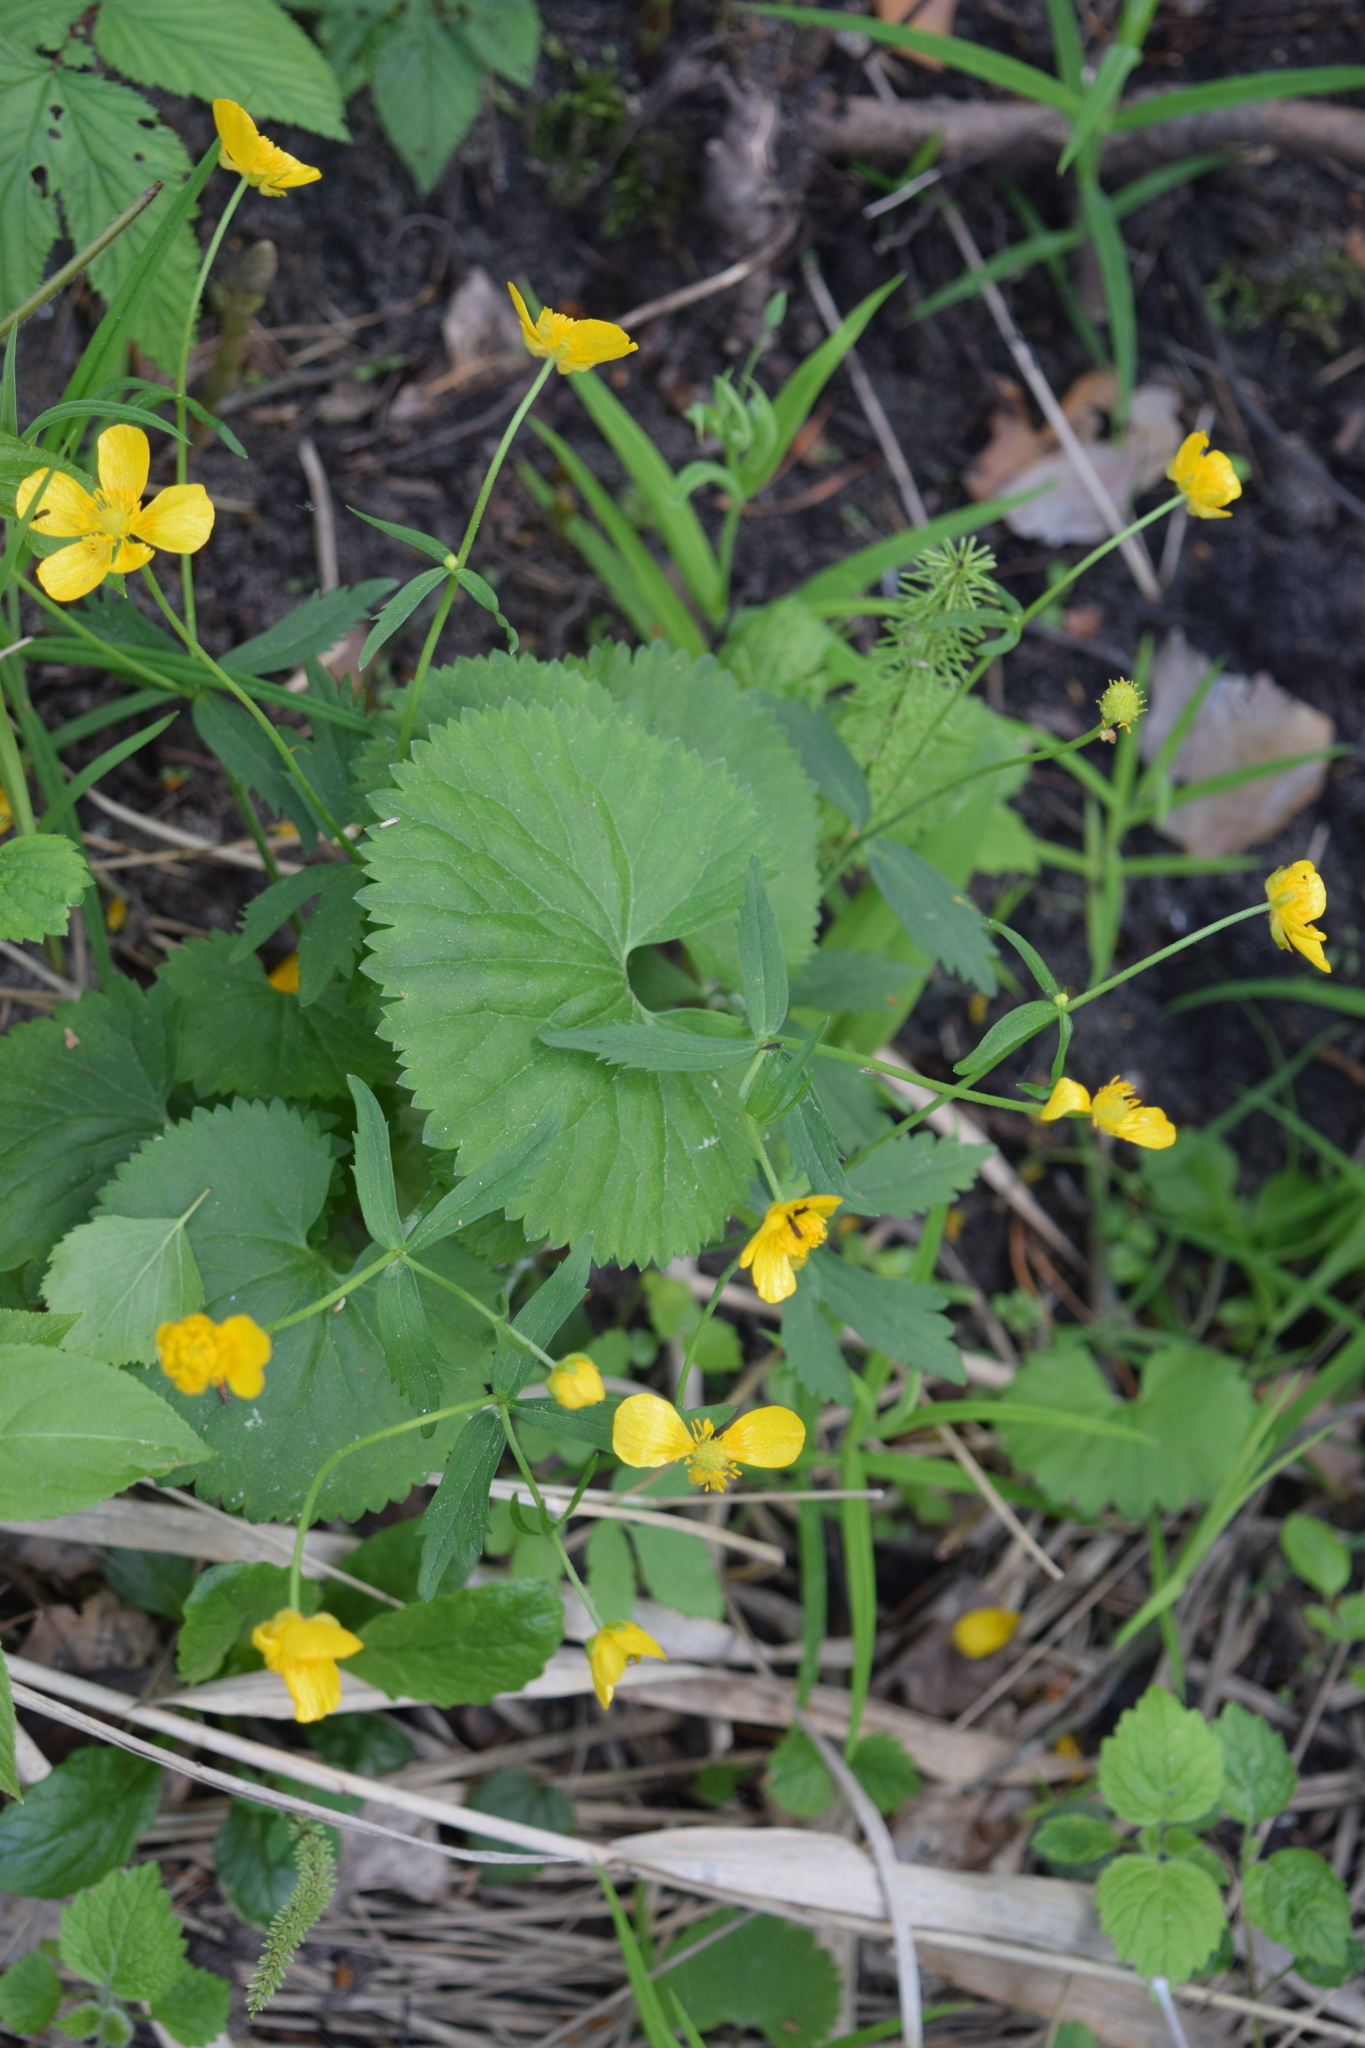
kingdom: Plantae
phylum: Tracheophyta
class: Magnoliopsida
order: Ranunculales
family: Ranunculaceae
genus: Ranunculus
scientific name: Ranunculus cassubicus
